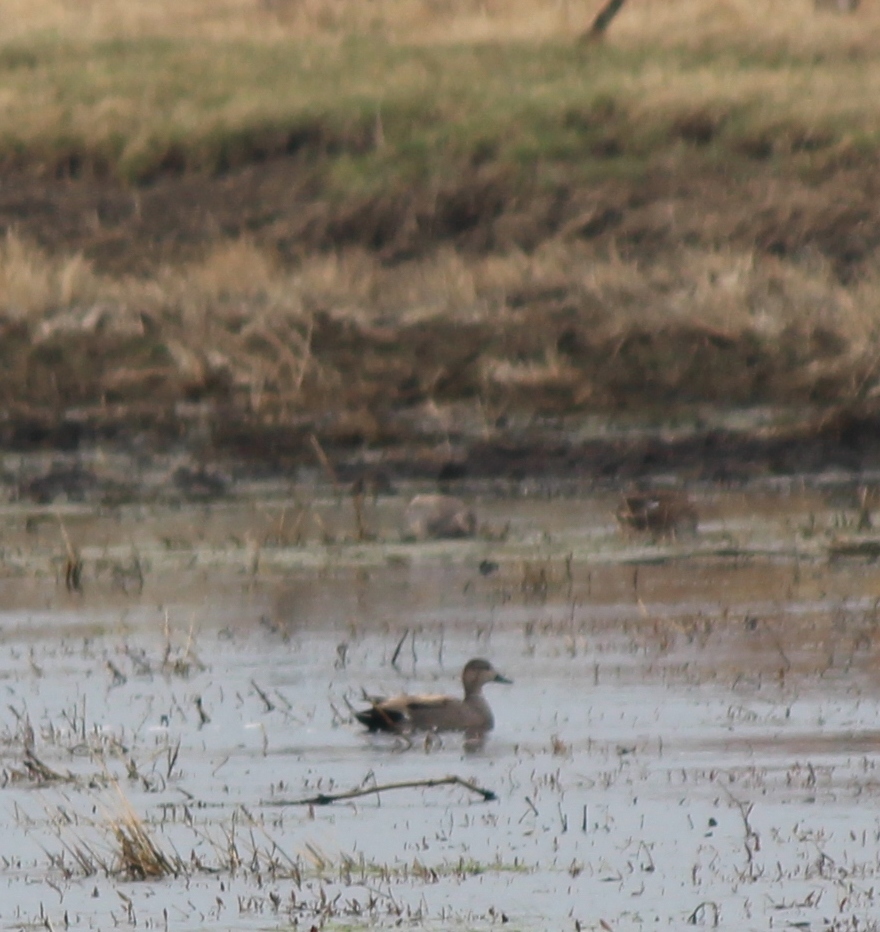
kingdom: Animalia
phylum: Chordata
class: Aves
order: Anseriformes
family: Anatidae
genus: Mareca
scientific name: Mareca strepera
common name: Gadwall
